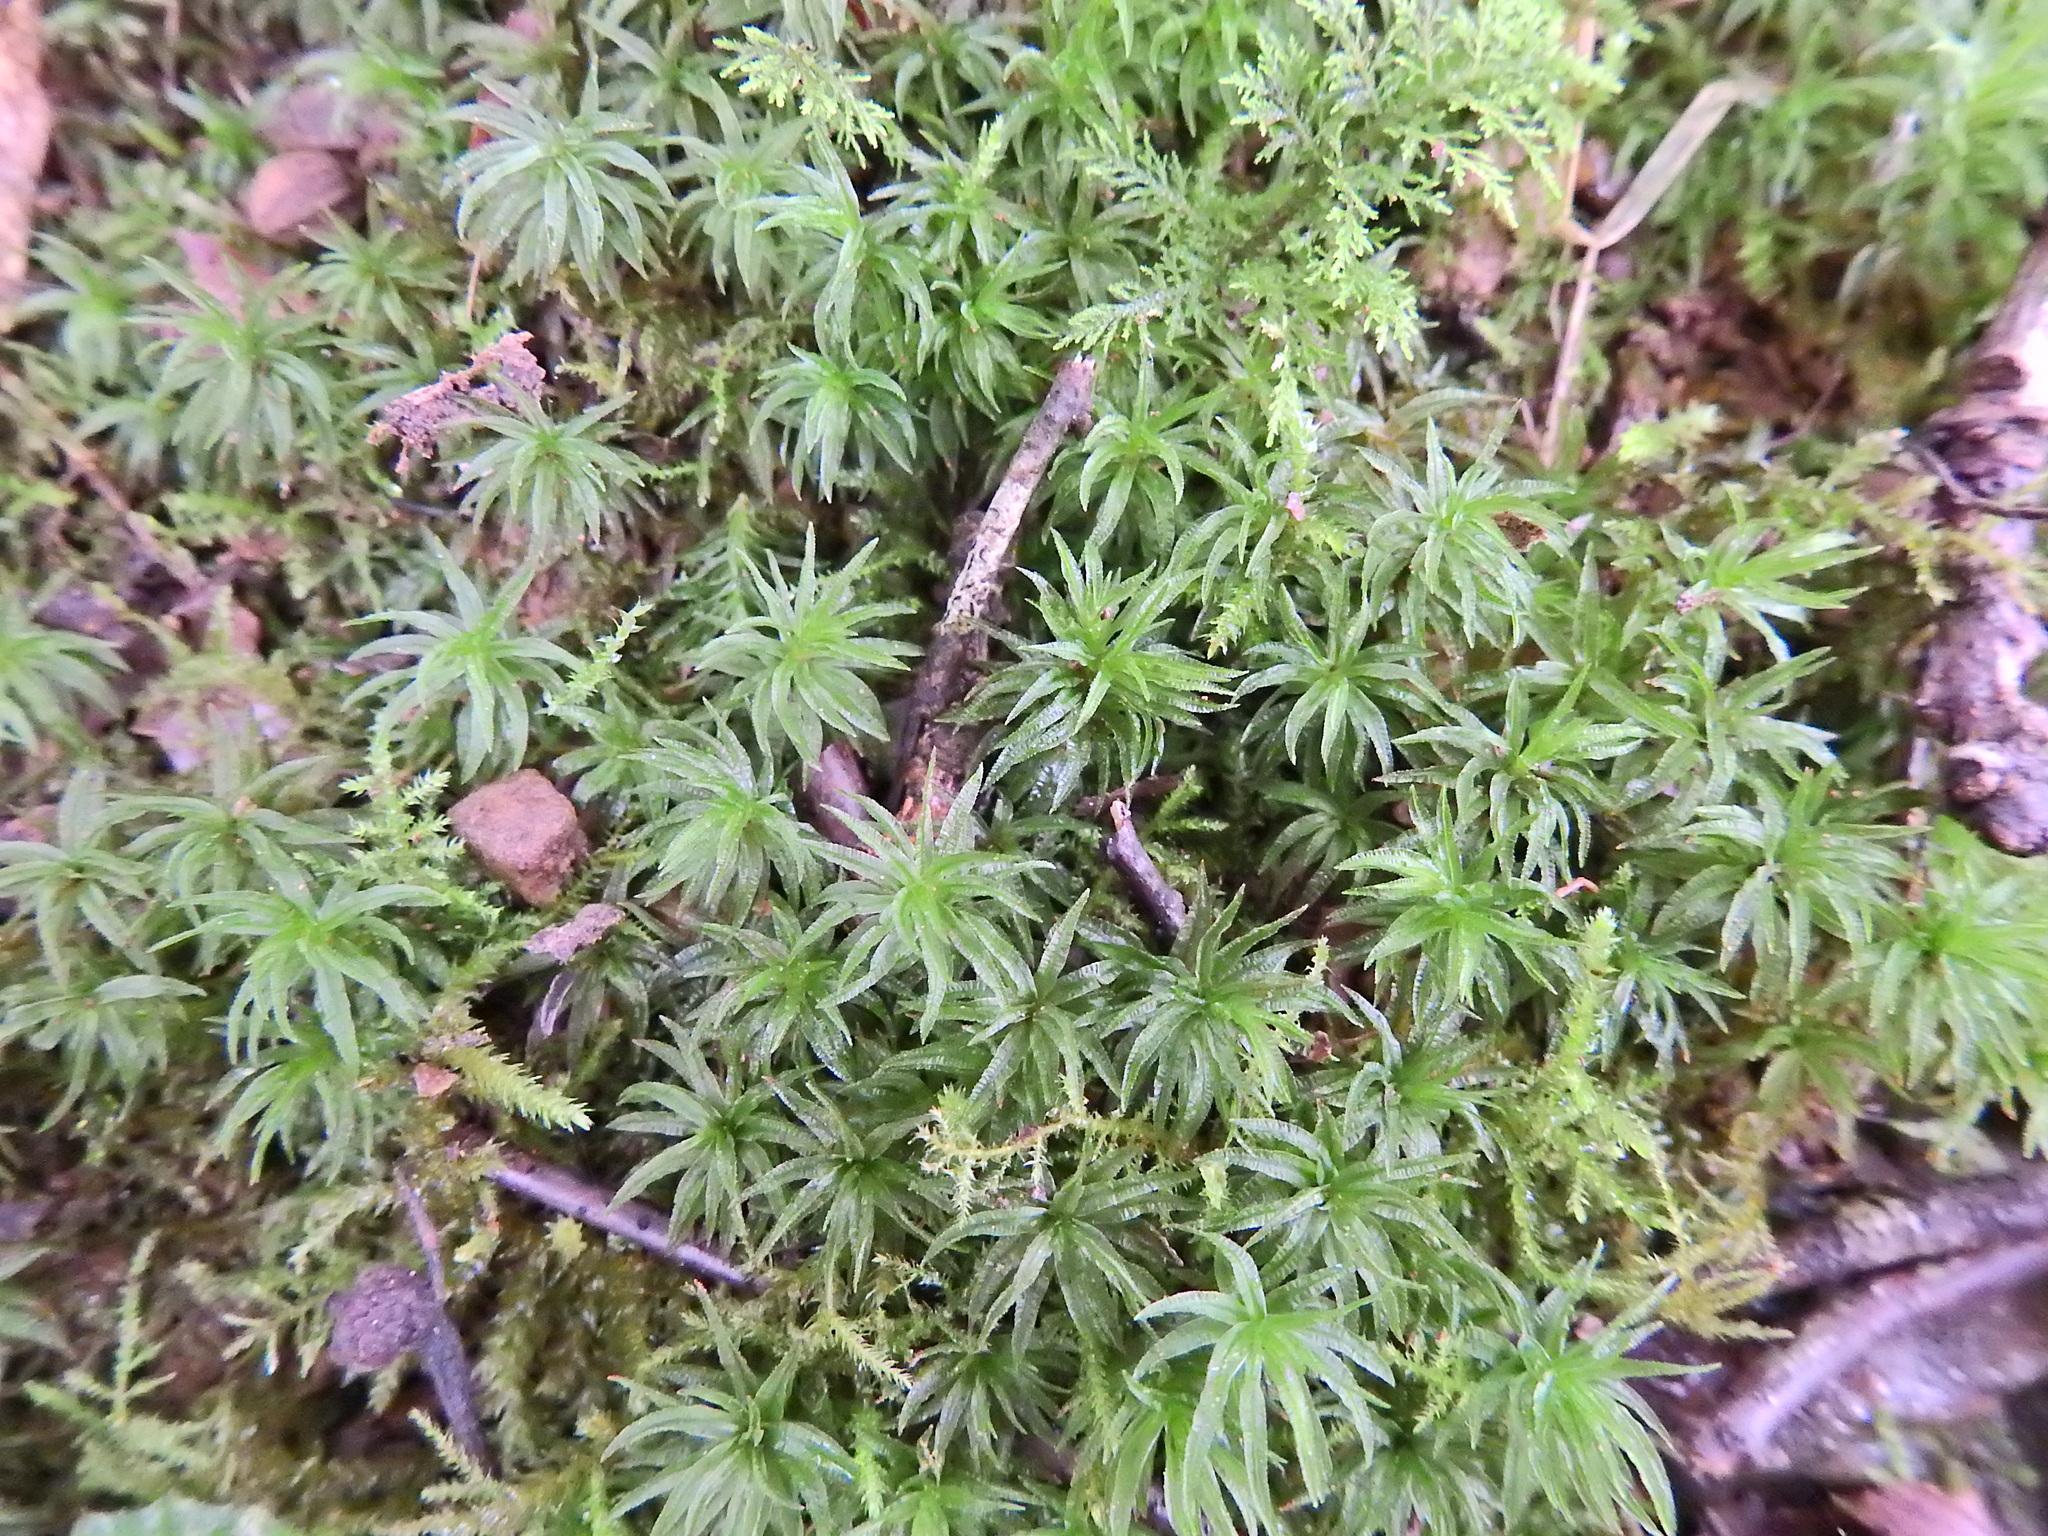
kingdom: Plantae
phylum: Bryophyta
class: Polytrichopsida
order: Polytrichales
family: Polytrichaceae
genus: Atrichum
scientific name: Atrichum undulatum
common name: Common smoothcap
